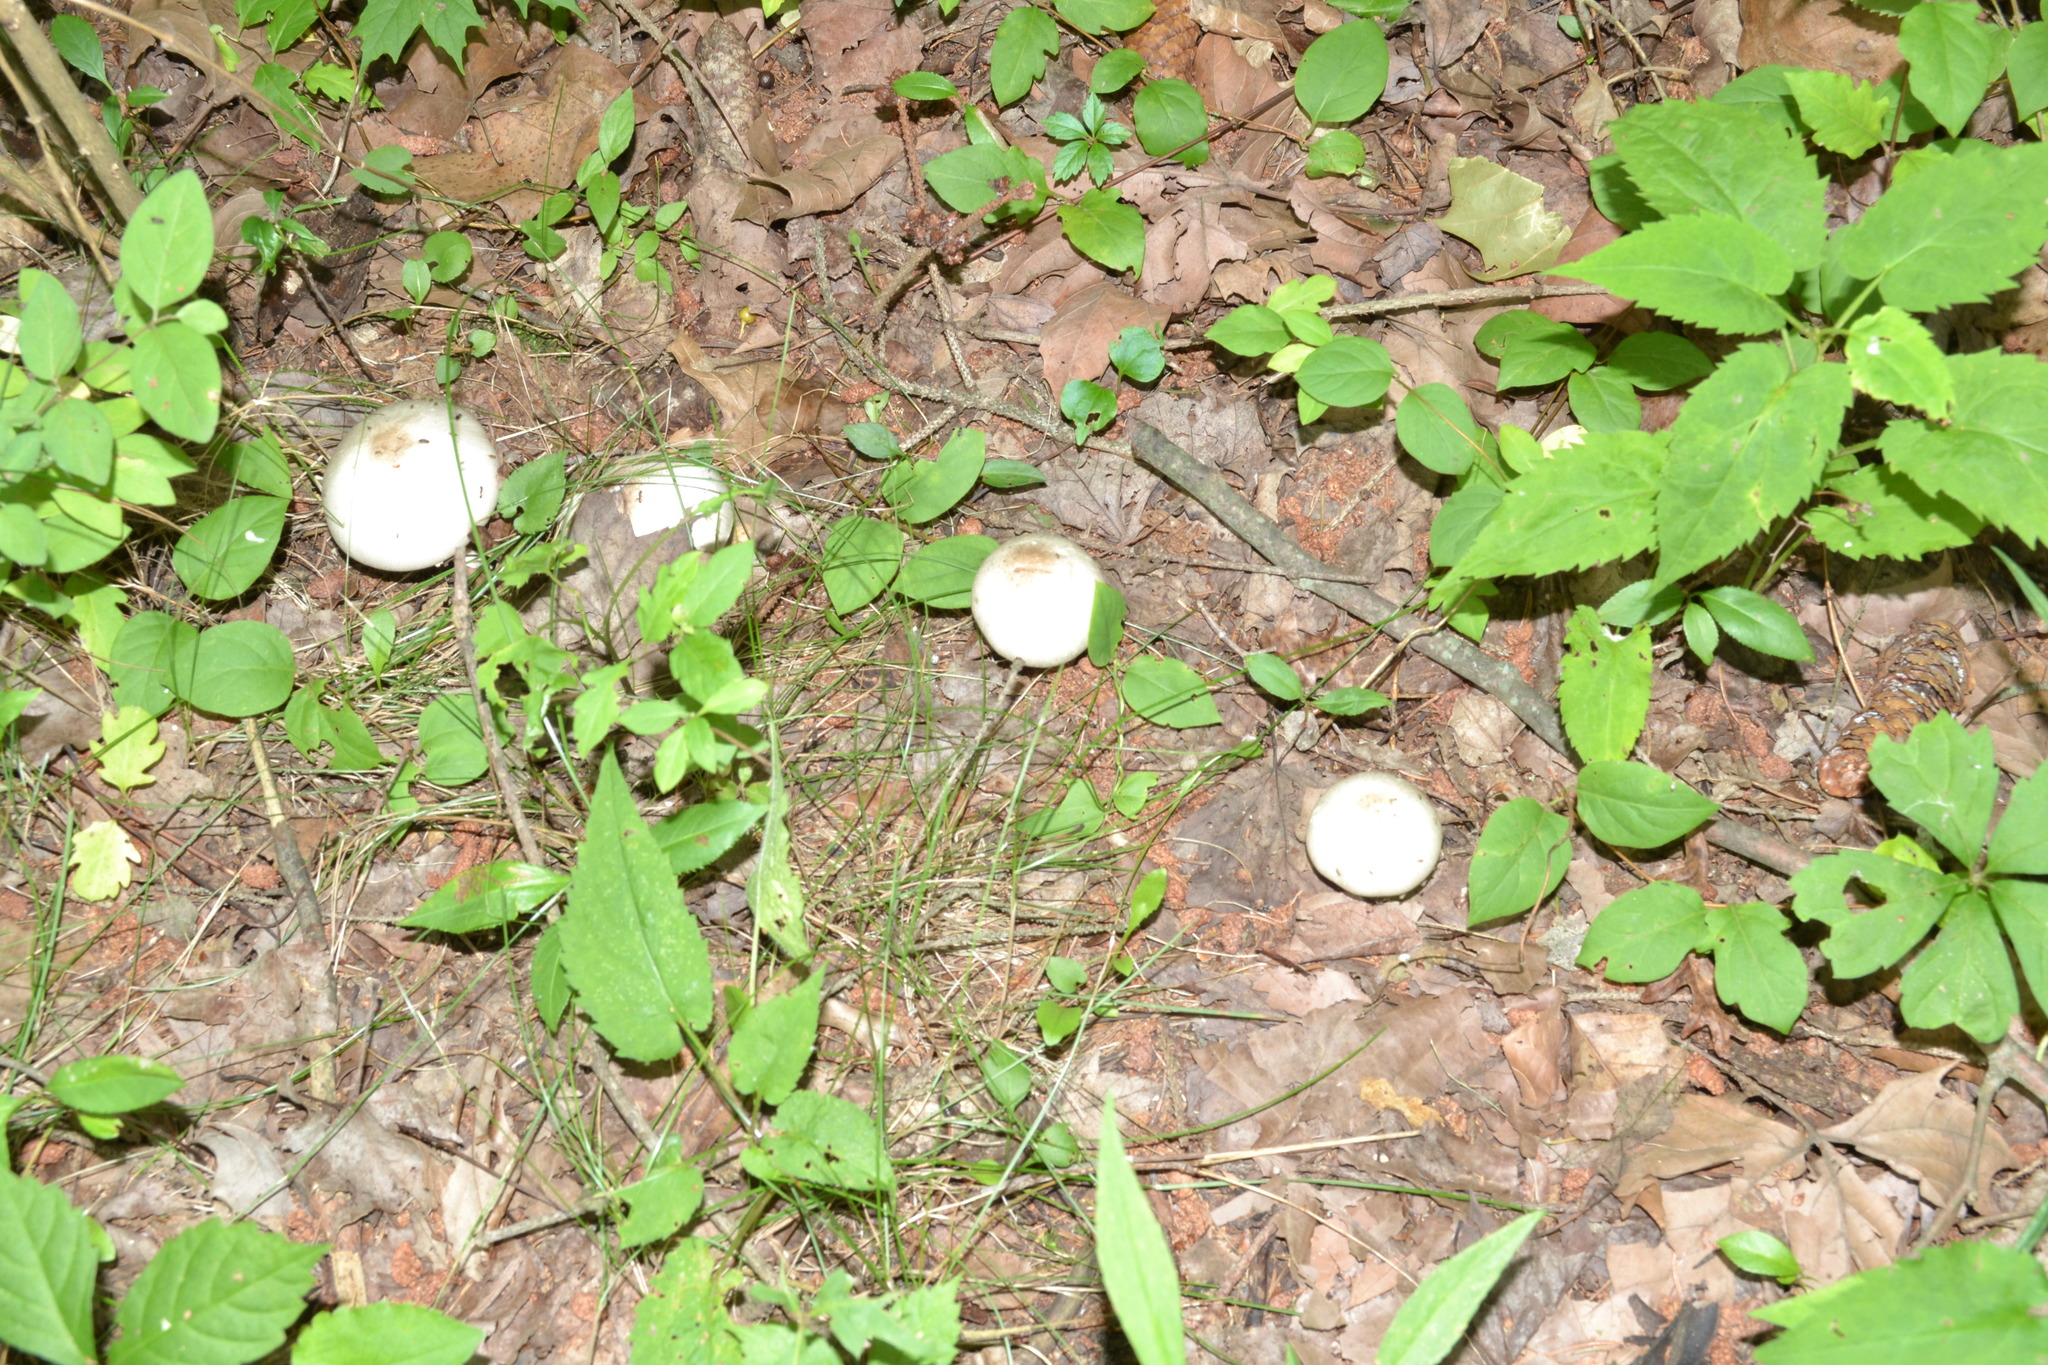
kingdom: Fungi
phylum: Basidiomycota
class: Agaricomycetes
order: Agaricales
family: Agaricaceae
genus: Agaricus
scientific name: Agaricus xanthodermus
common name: Yellow stainer
